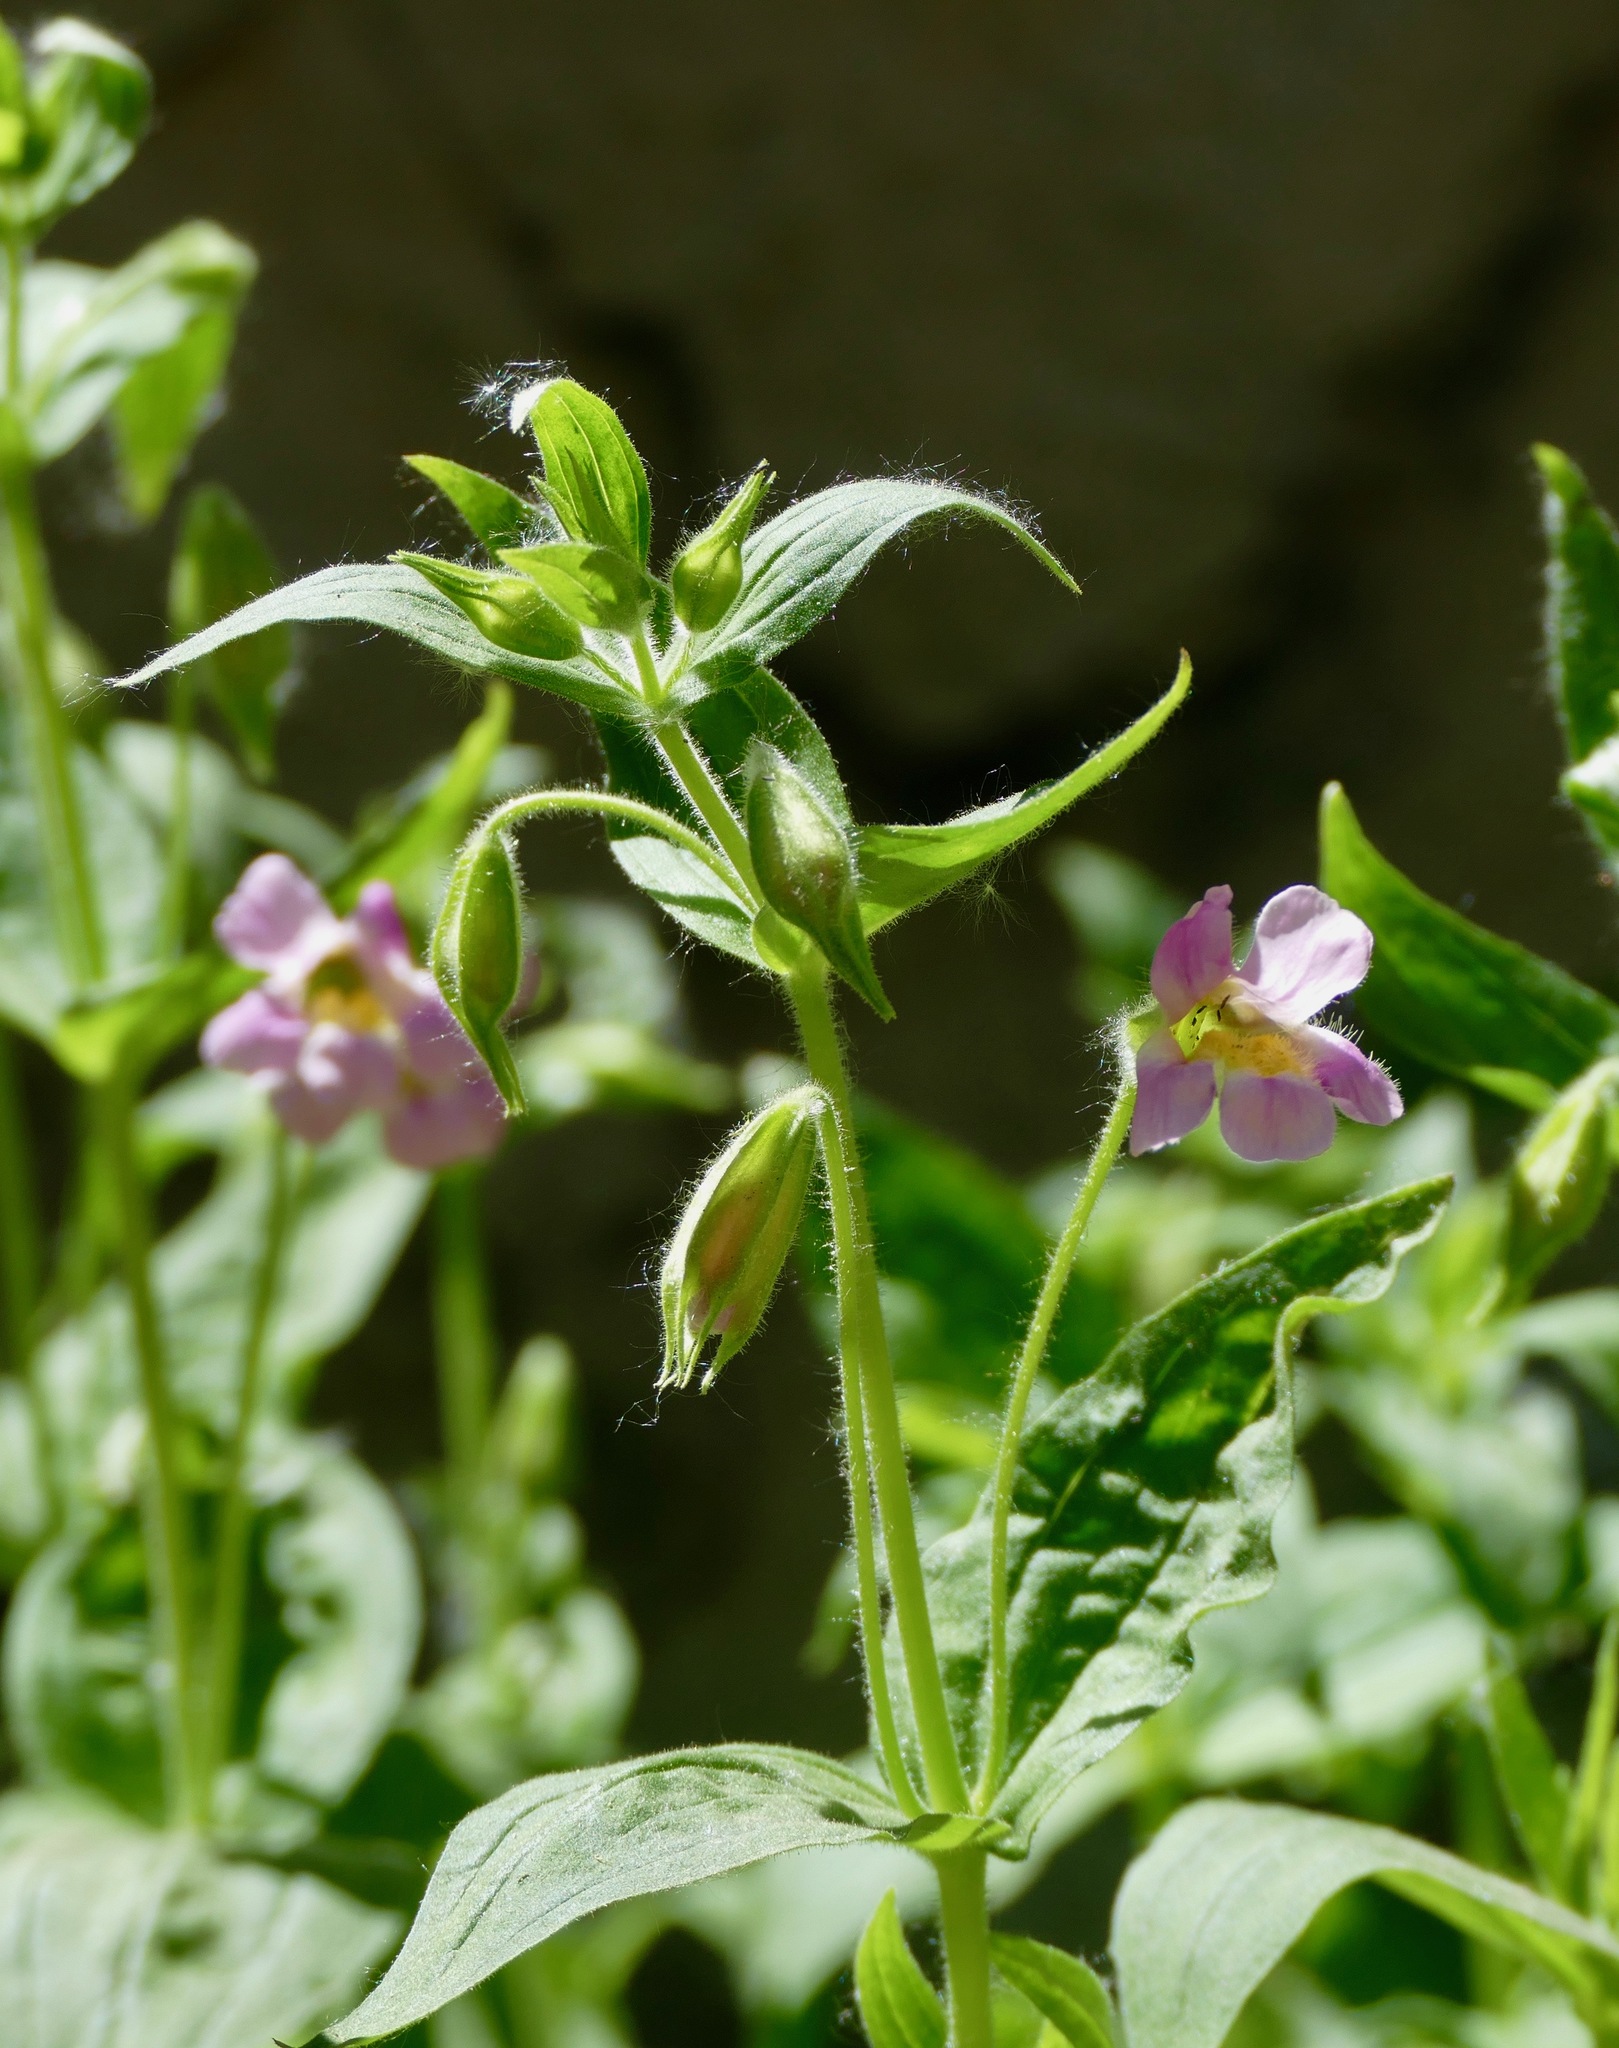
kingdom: Plantae
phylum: Tracheophyta
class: Magnoliopsida
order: Lamiales
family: Phrymaceae
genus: Erythranthe
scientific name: Erythranthe erubescens
